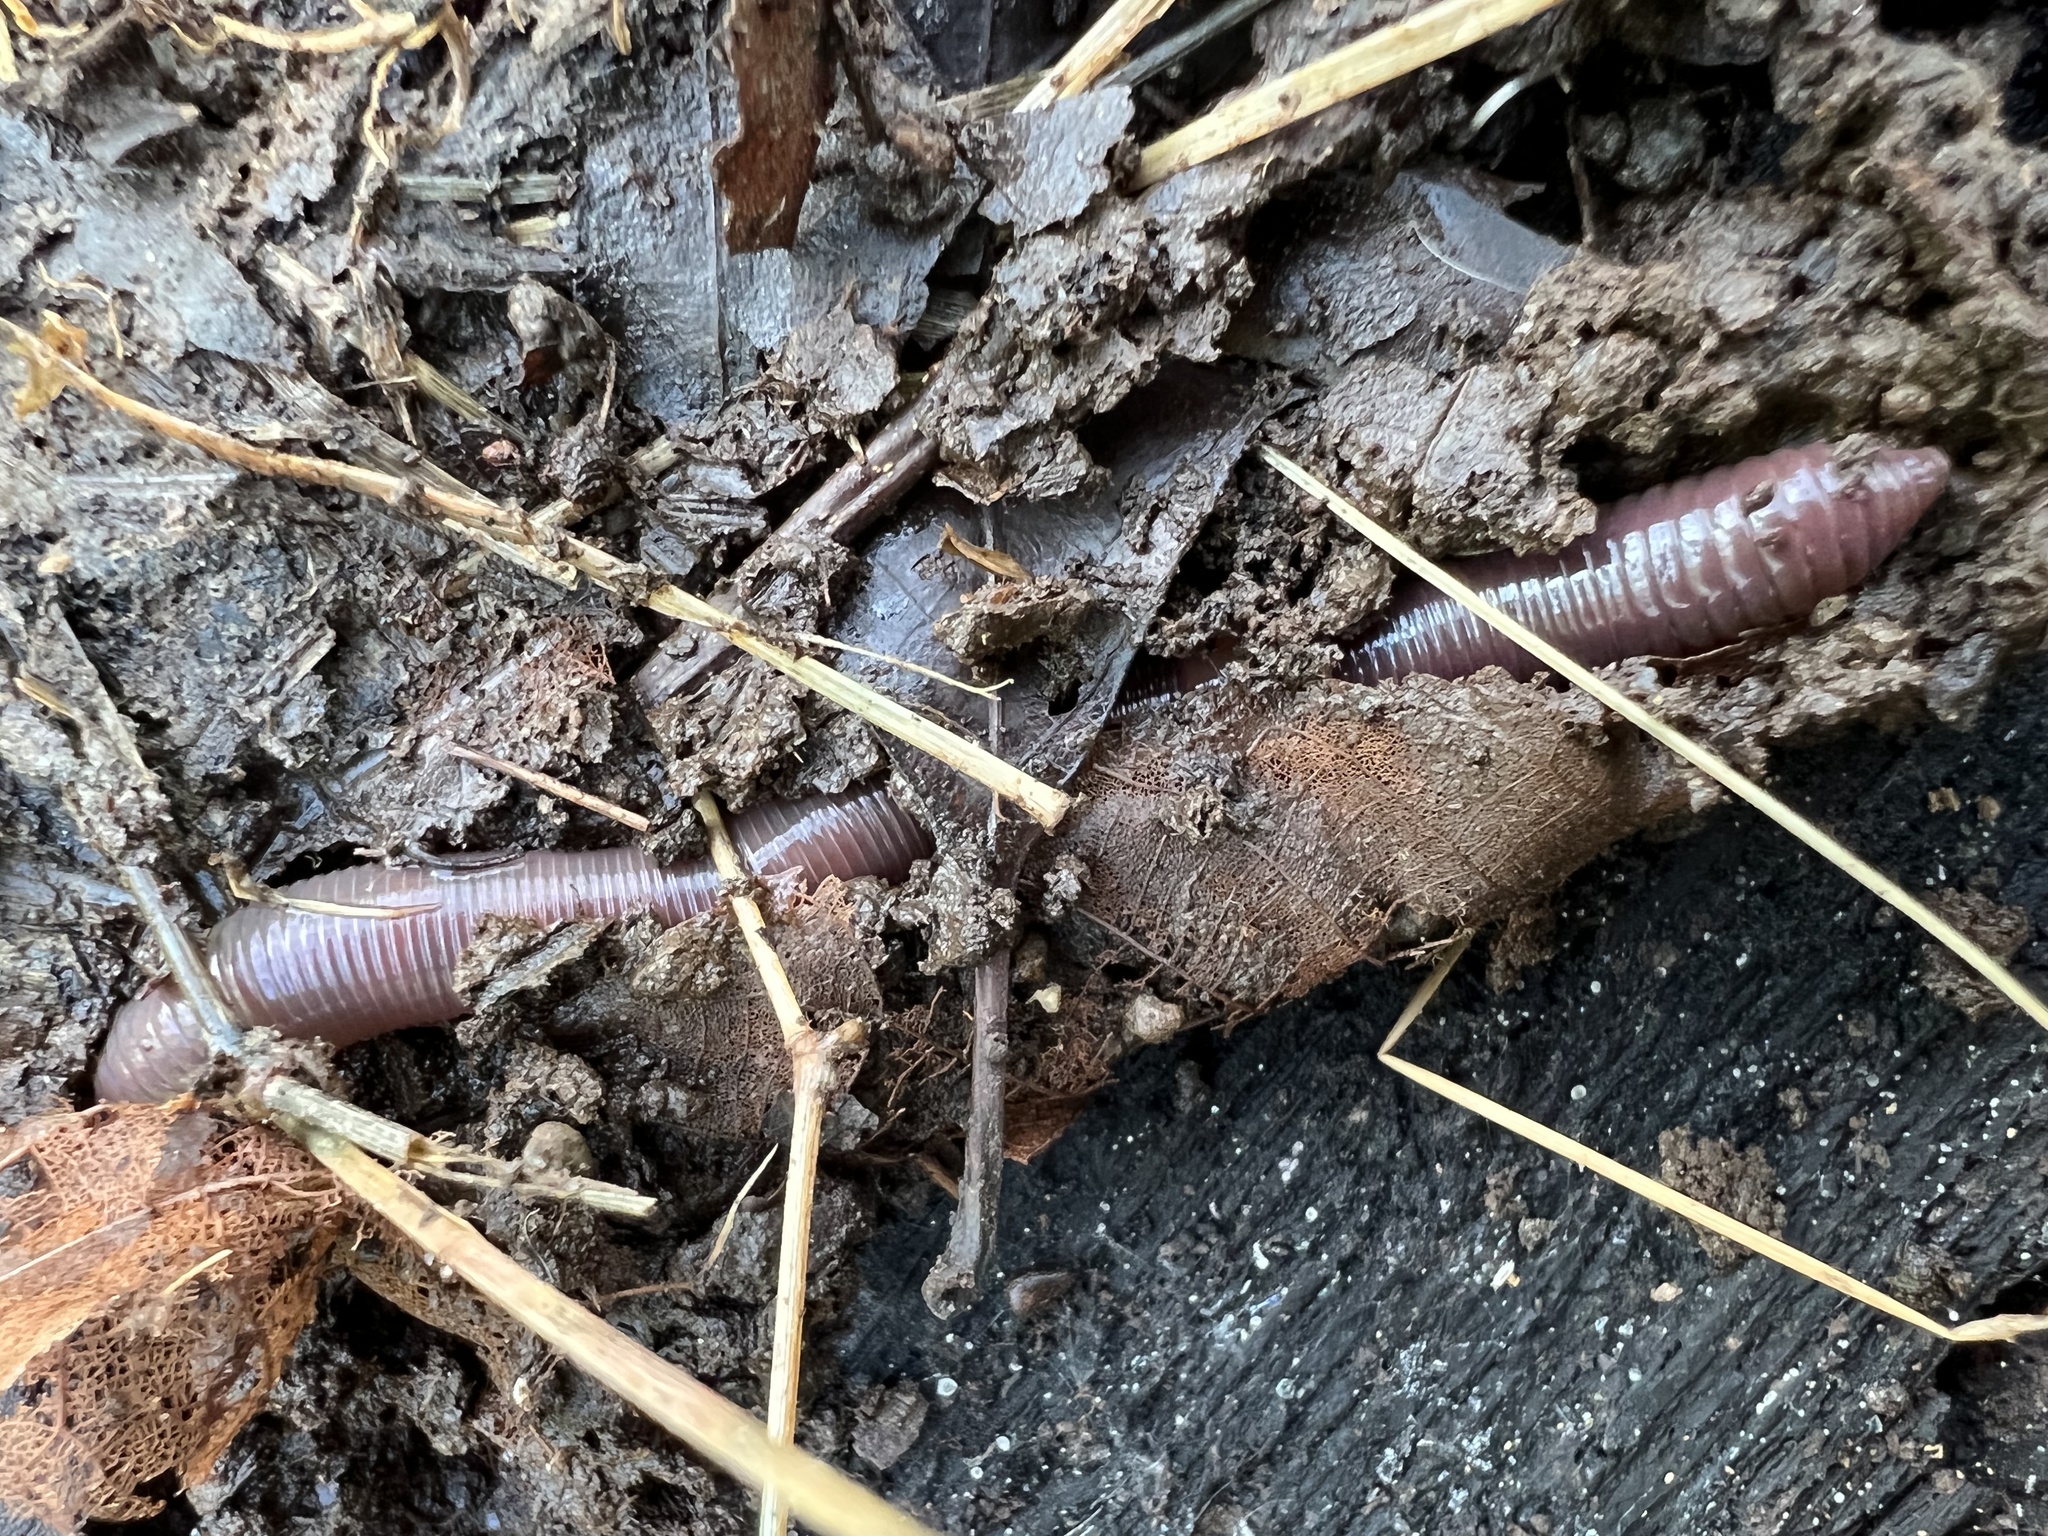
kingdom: Animalia
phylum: Annelida
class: Clitellata
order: Crassiclitellata
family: Lumbricidae
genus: Lumbricus
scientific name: Lumbricus terrestris
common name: Common earthworm
